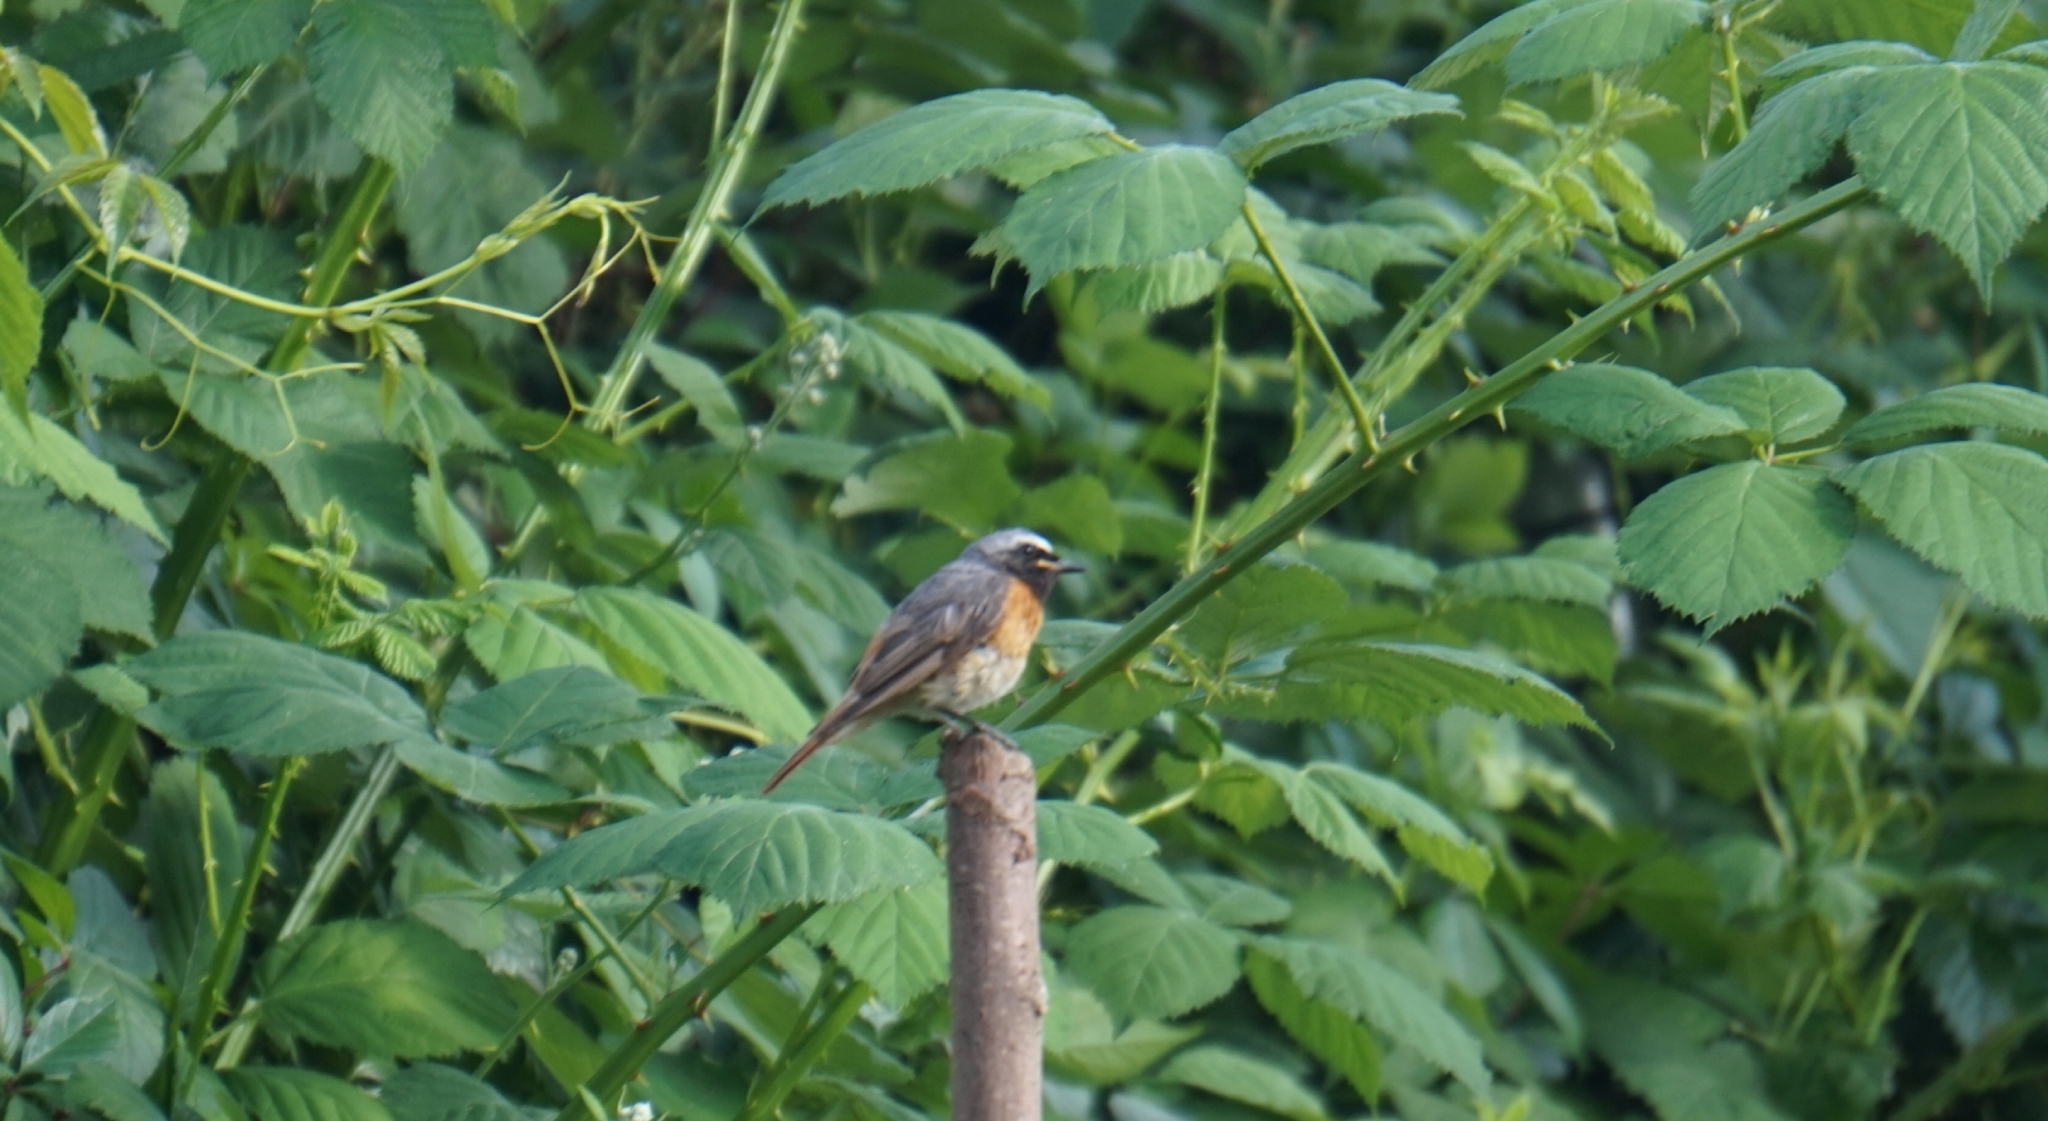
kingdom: Animalia
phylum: Chordata
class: Aves
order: Passeriformes
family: Muscicapidae
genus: Phoenicurus
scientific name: Phoenicurus phoenicurus
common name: Common redstart
